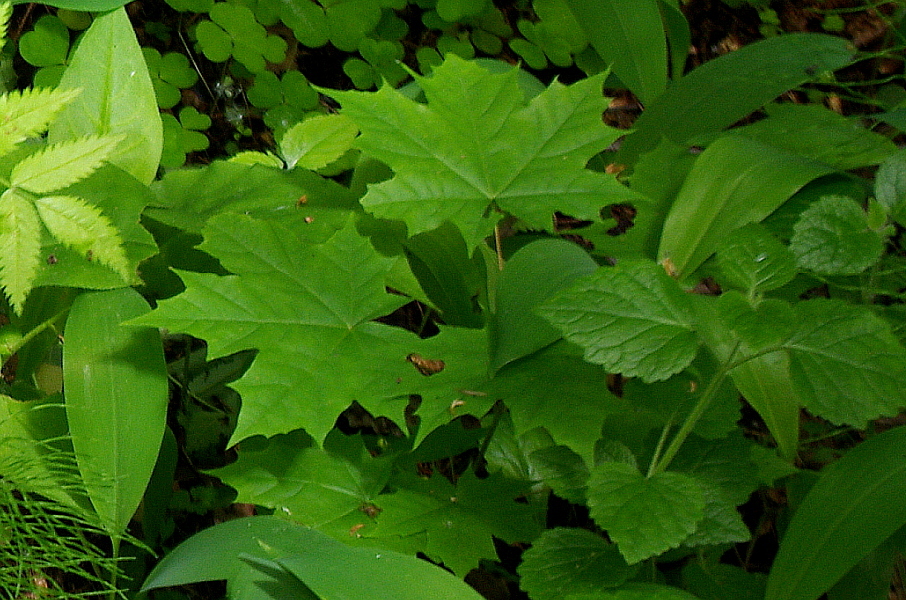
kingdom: Plantae
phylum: Tracheophyta
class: Magnoliopsida
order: Sapindales
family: Sapindaceae
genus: Acer
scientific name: Acer platanoides
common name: Norway maple
